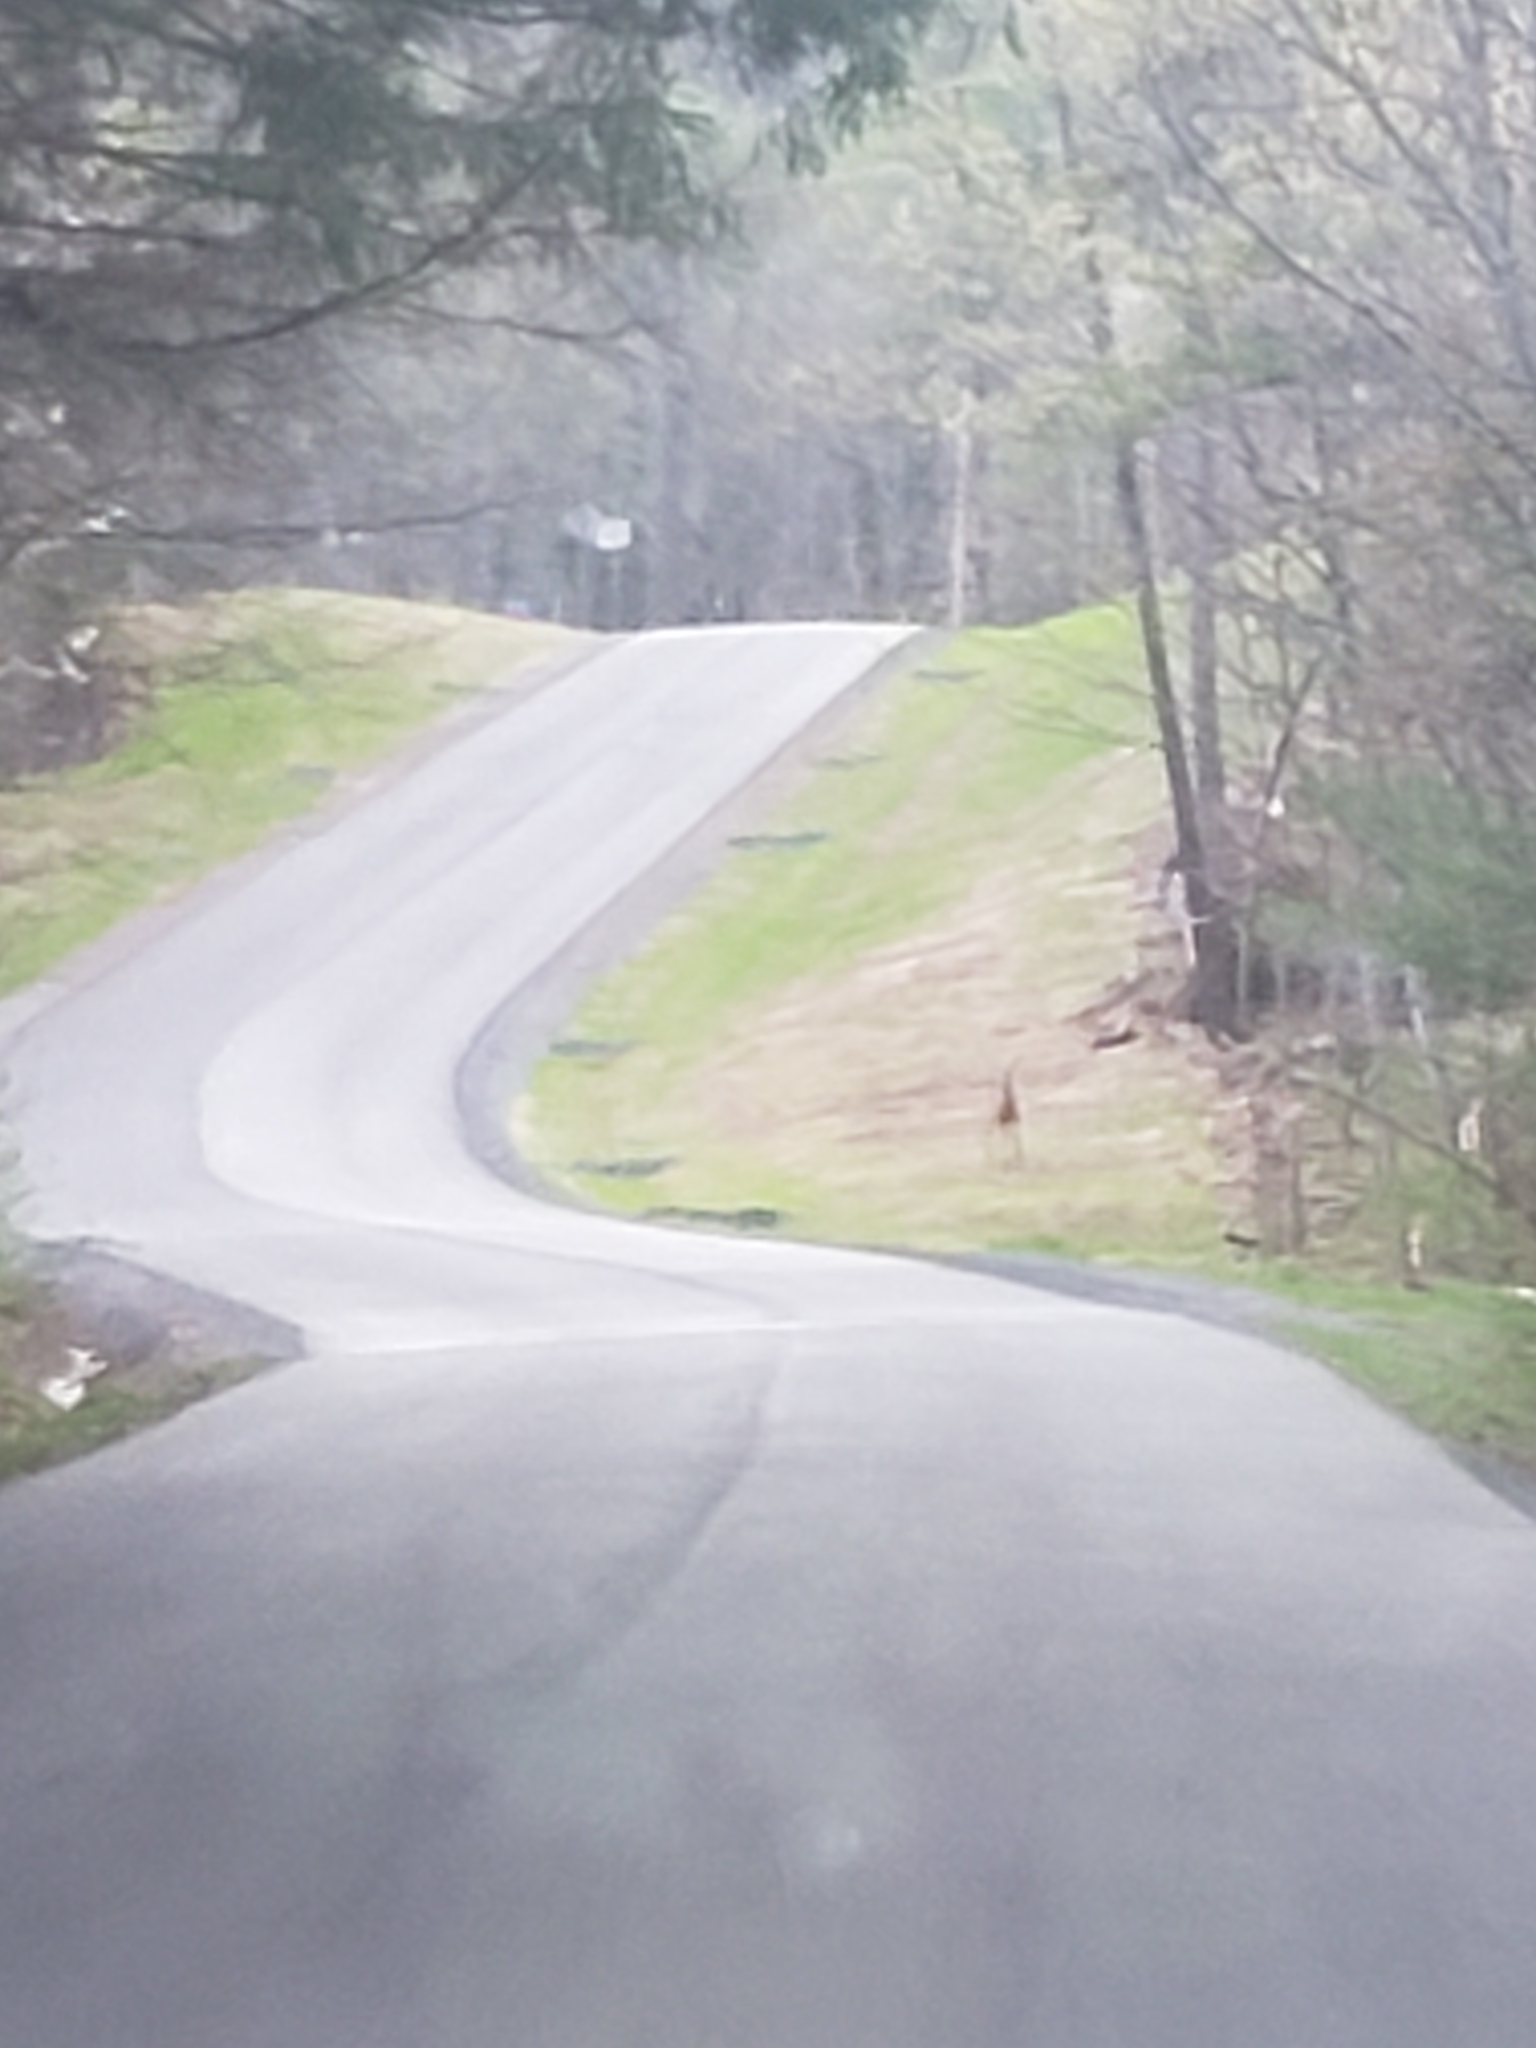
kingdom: Animalia
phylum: Chordata
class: Mammalia
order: Artiodactyla
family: Cervidae
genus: Odocoileus
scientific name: Odocoileus virginianus
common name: White-tailed deer
